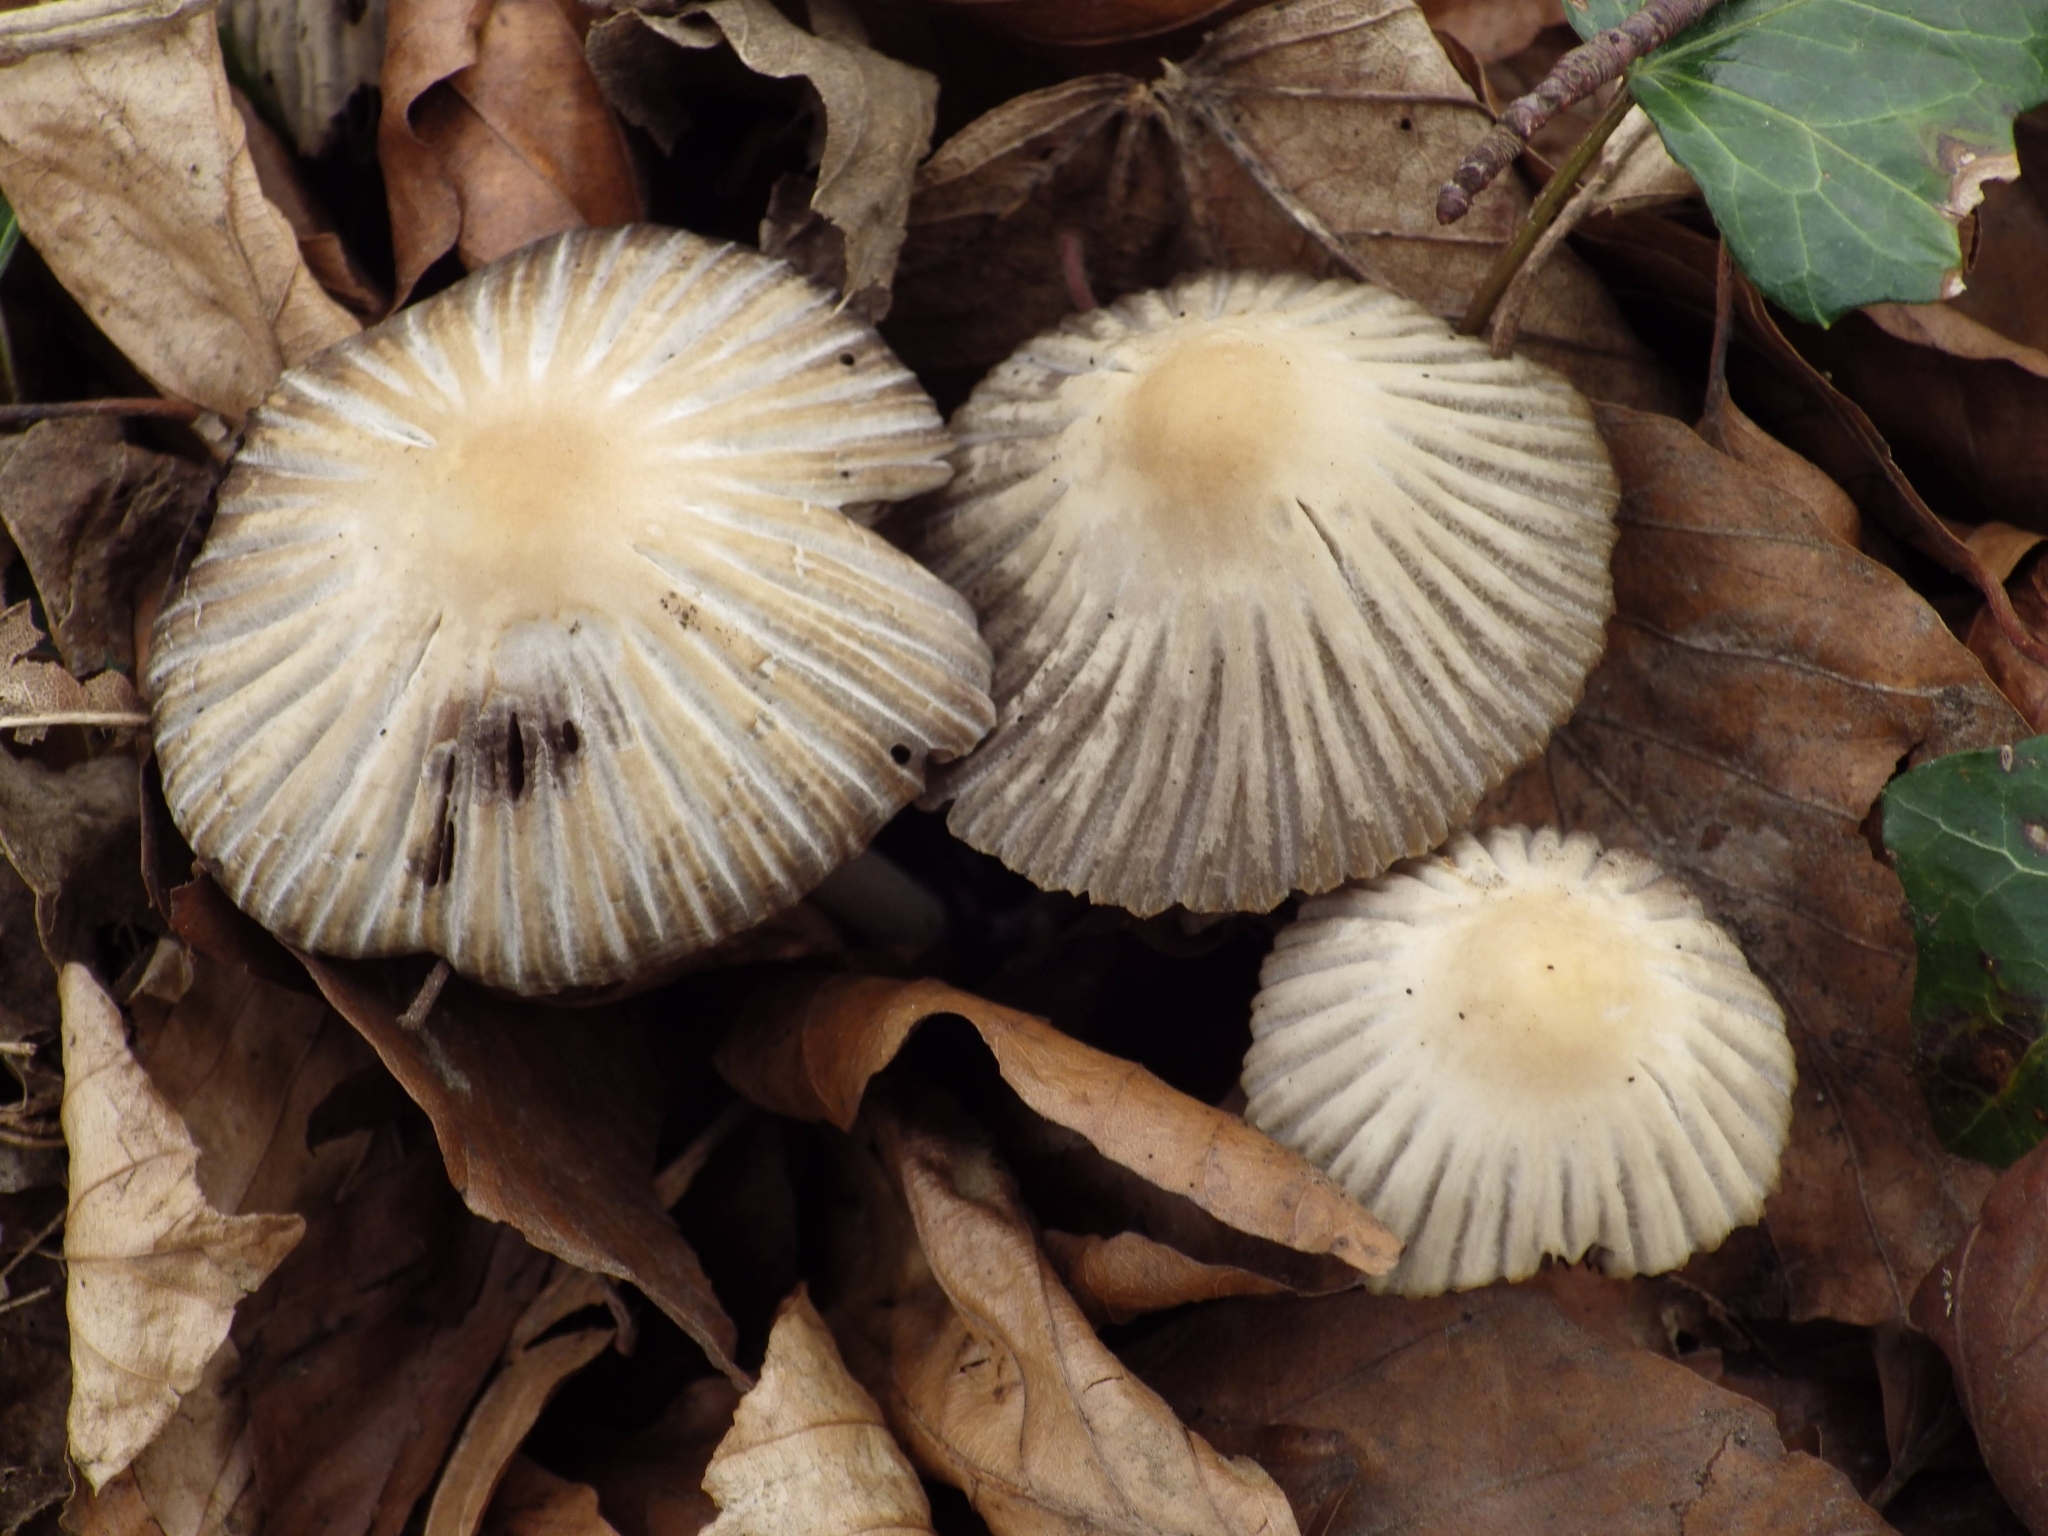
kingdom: Fungi
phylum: Basidiomycota
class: Agaricomycetes
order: Agaricales
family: Psathyrellaceae
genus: Tulosesus
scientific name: Tulosesus impatiens
